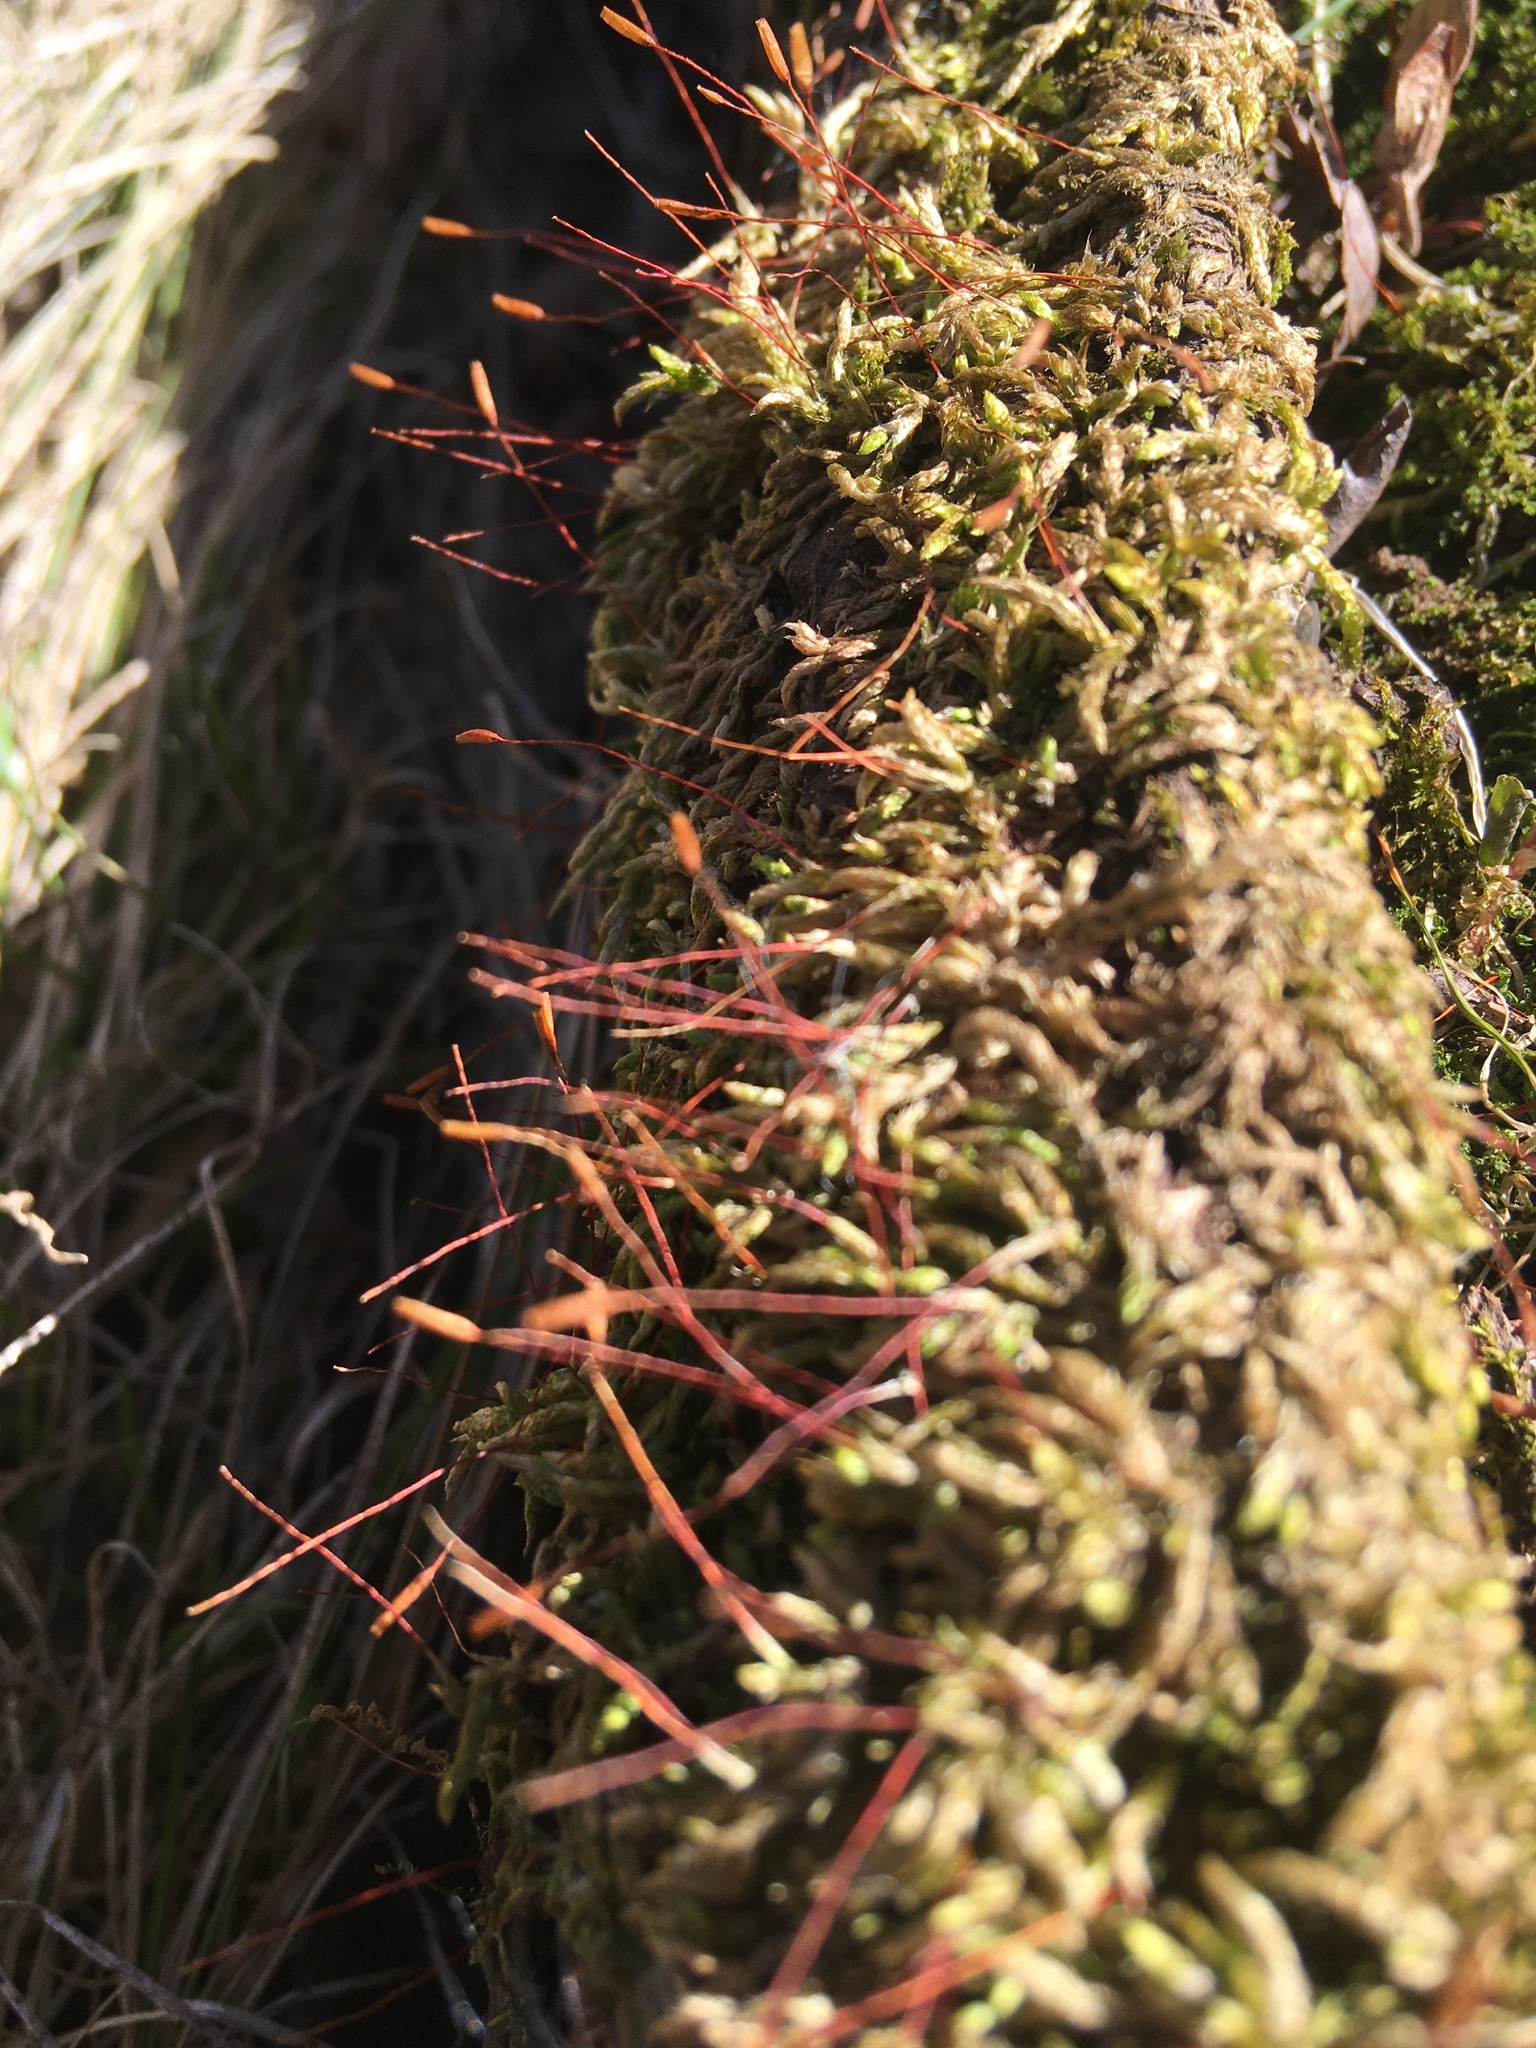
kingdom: Plantae
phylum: Bryophyta
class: Bryopsida
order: Hypnales
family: Entodontaceae
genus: Entodon
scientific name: Entodon seductrix
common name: Round-stemmed entodon moss
